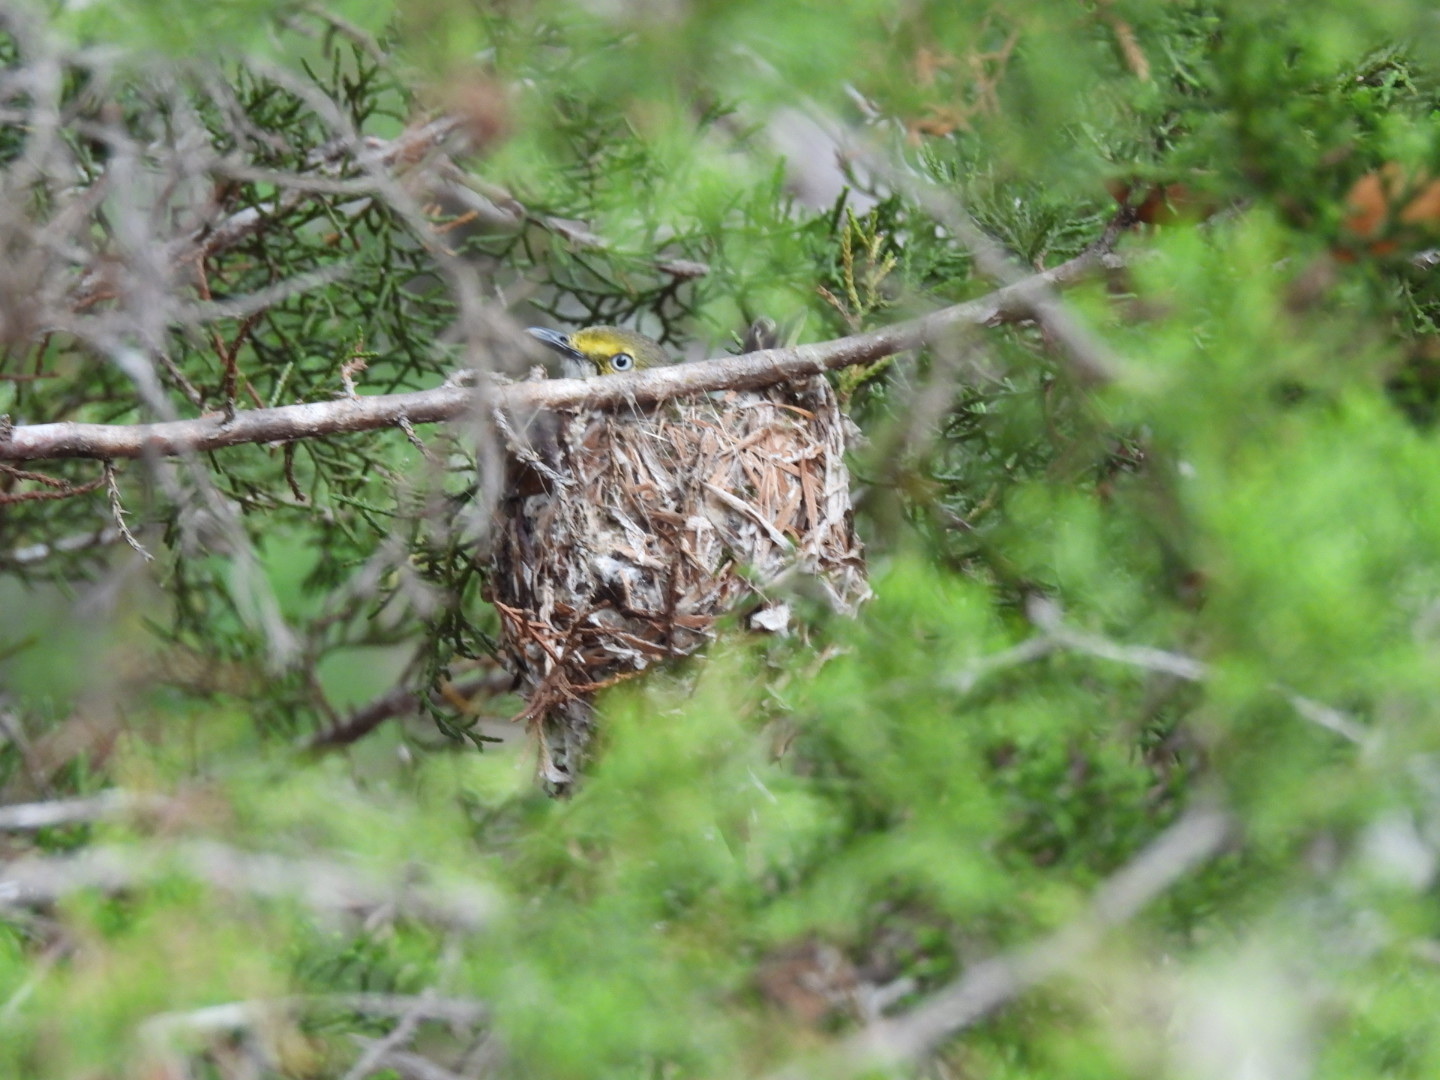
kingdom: Animalia
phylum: Chordata
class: Aves
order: Passeriformes
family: Vireonidae
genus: Vireo
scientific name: Vireo griseus
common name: White-eyed vireo
